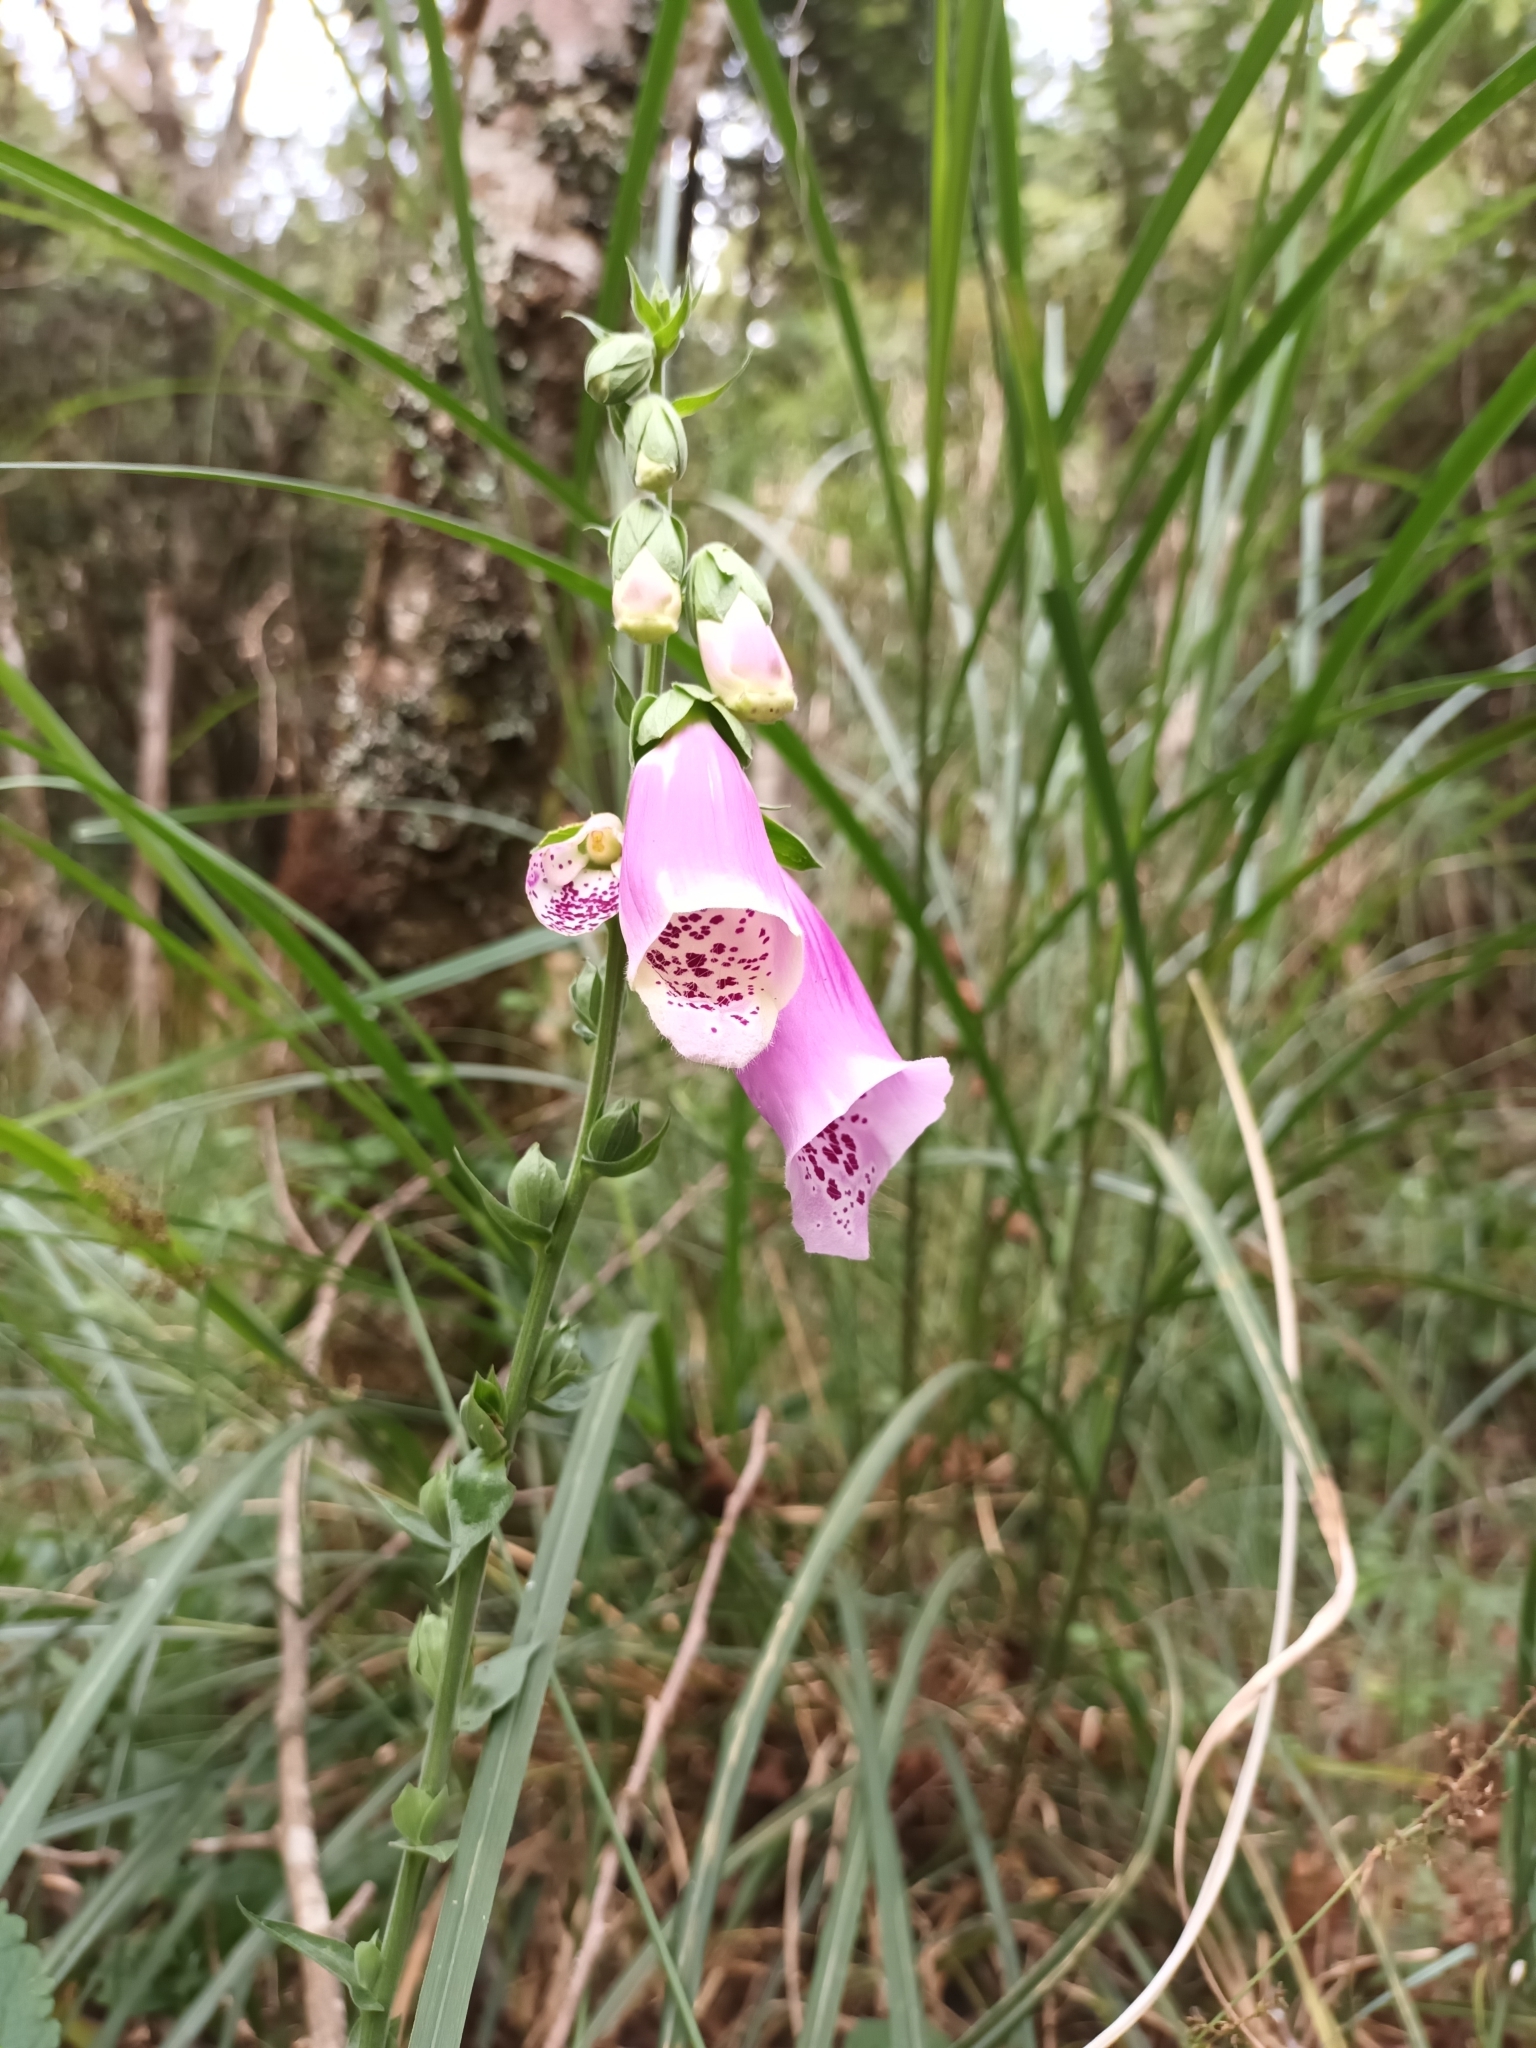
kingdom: Plantae
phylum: Tracheophyta
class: Magnoliopsida
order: Lamiales
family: Plantaginaceae
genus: Digitalis
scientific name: Digitalis purpurea
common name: Foxglove
